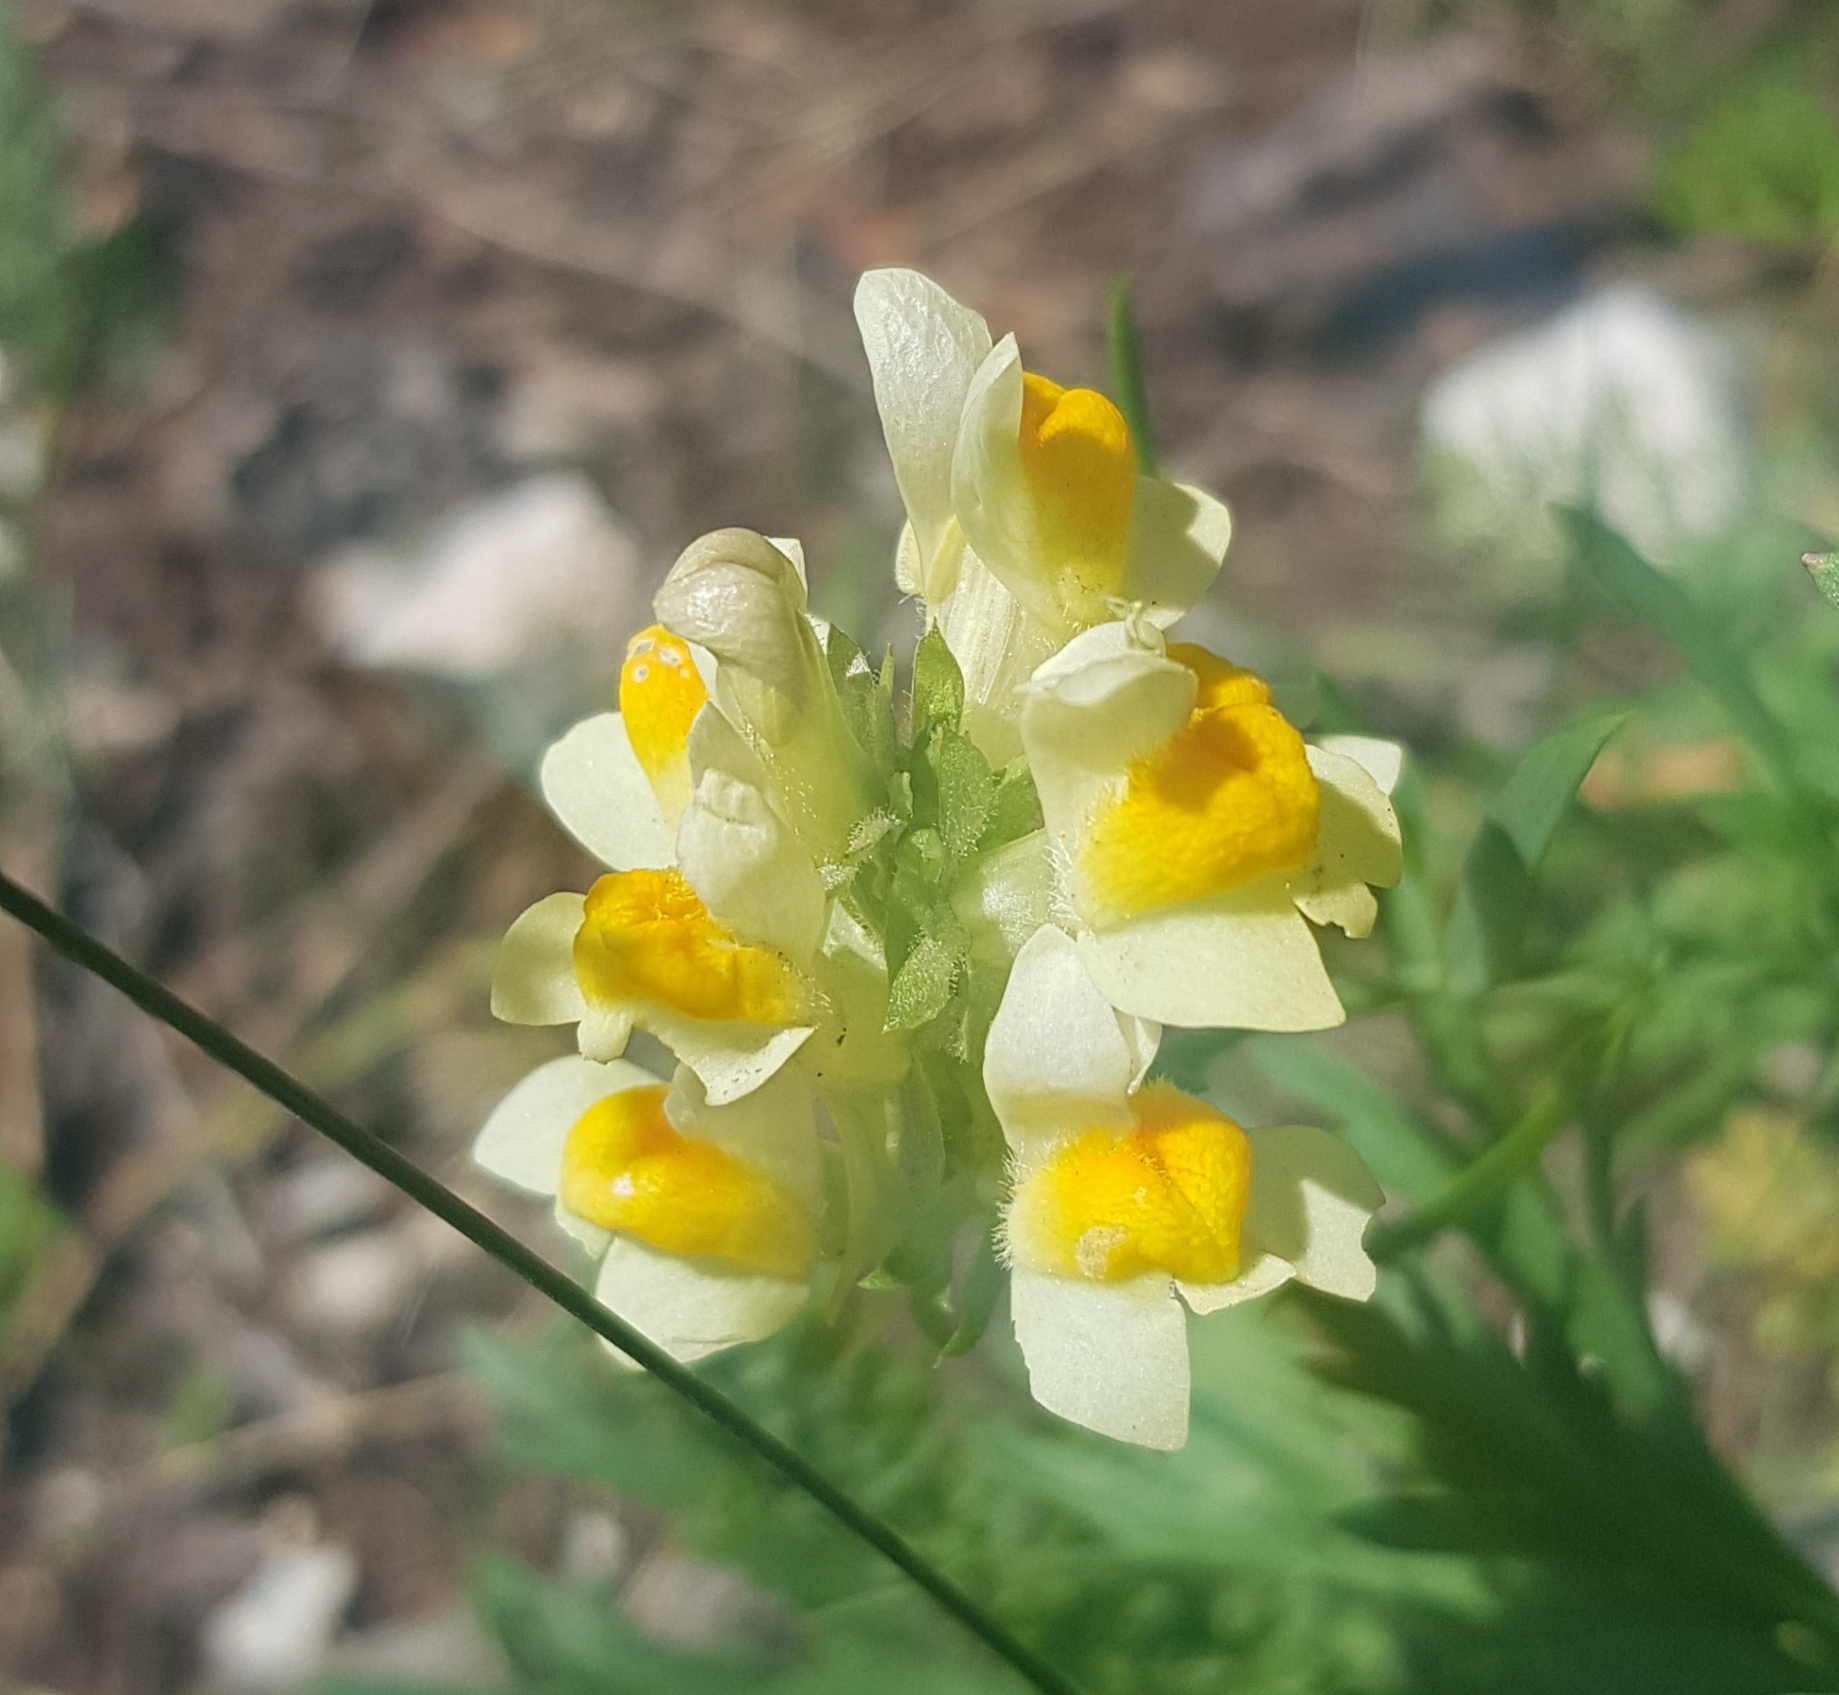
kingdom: Plantae
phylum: Tracheophyta
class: Magnoliopsida
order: Lamiales
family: Plantaginaceae
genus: Linaria
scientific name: Linaria buriatica
